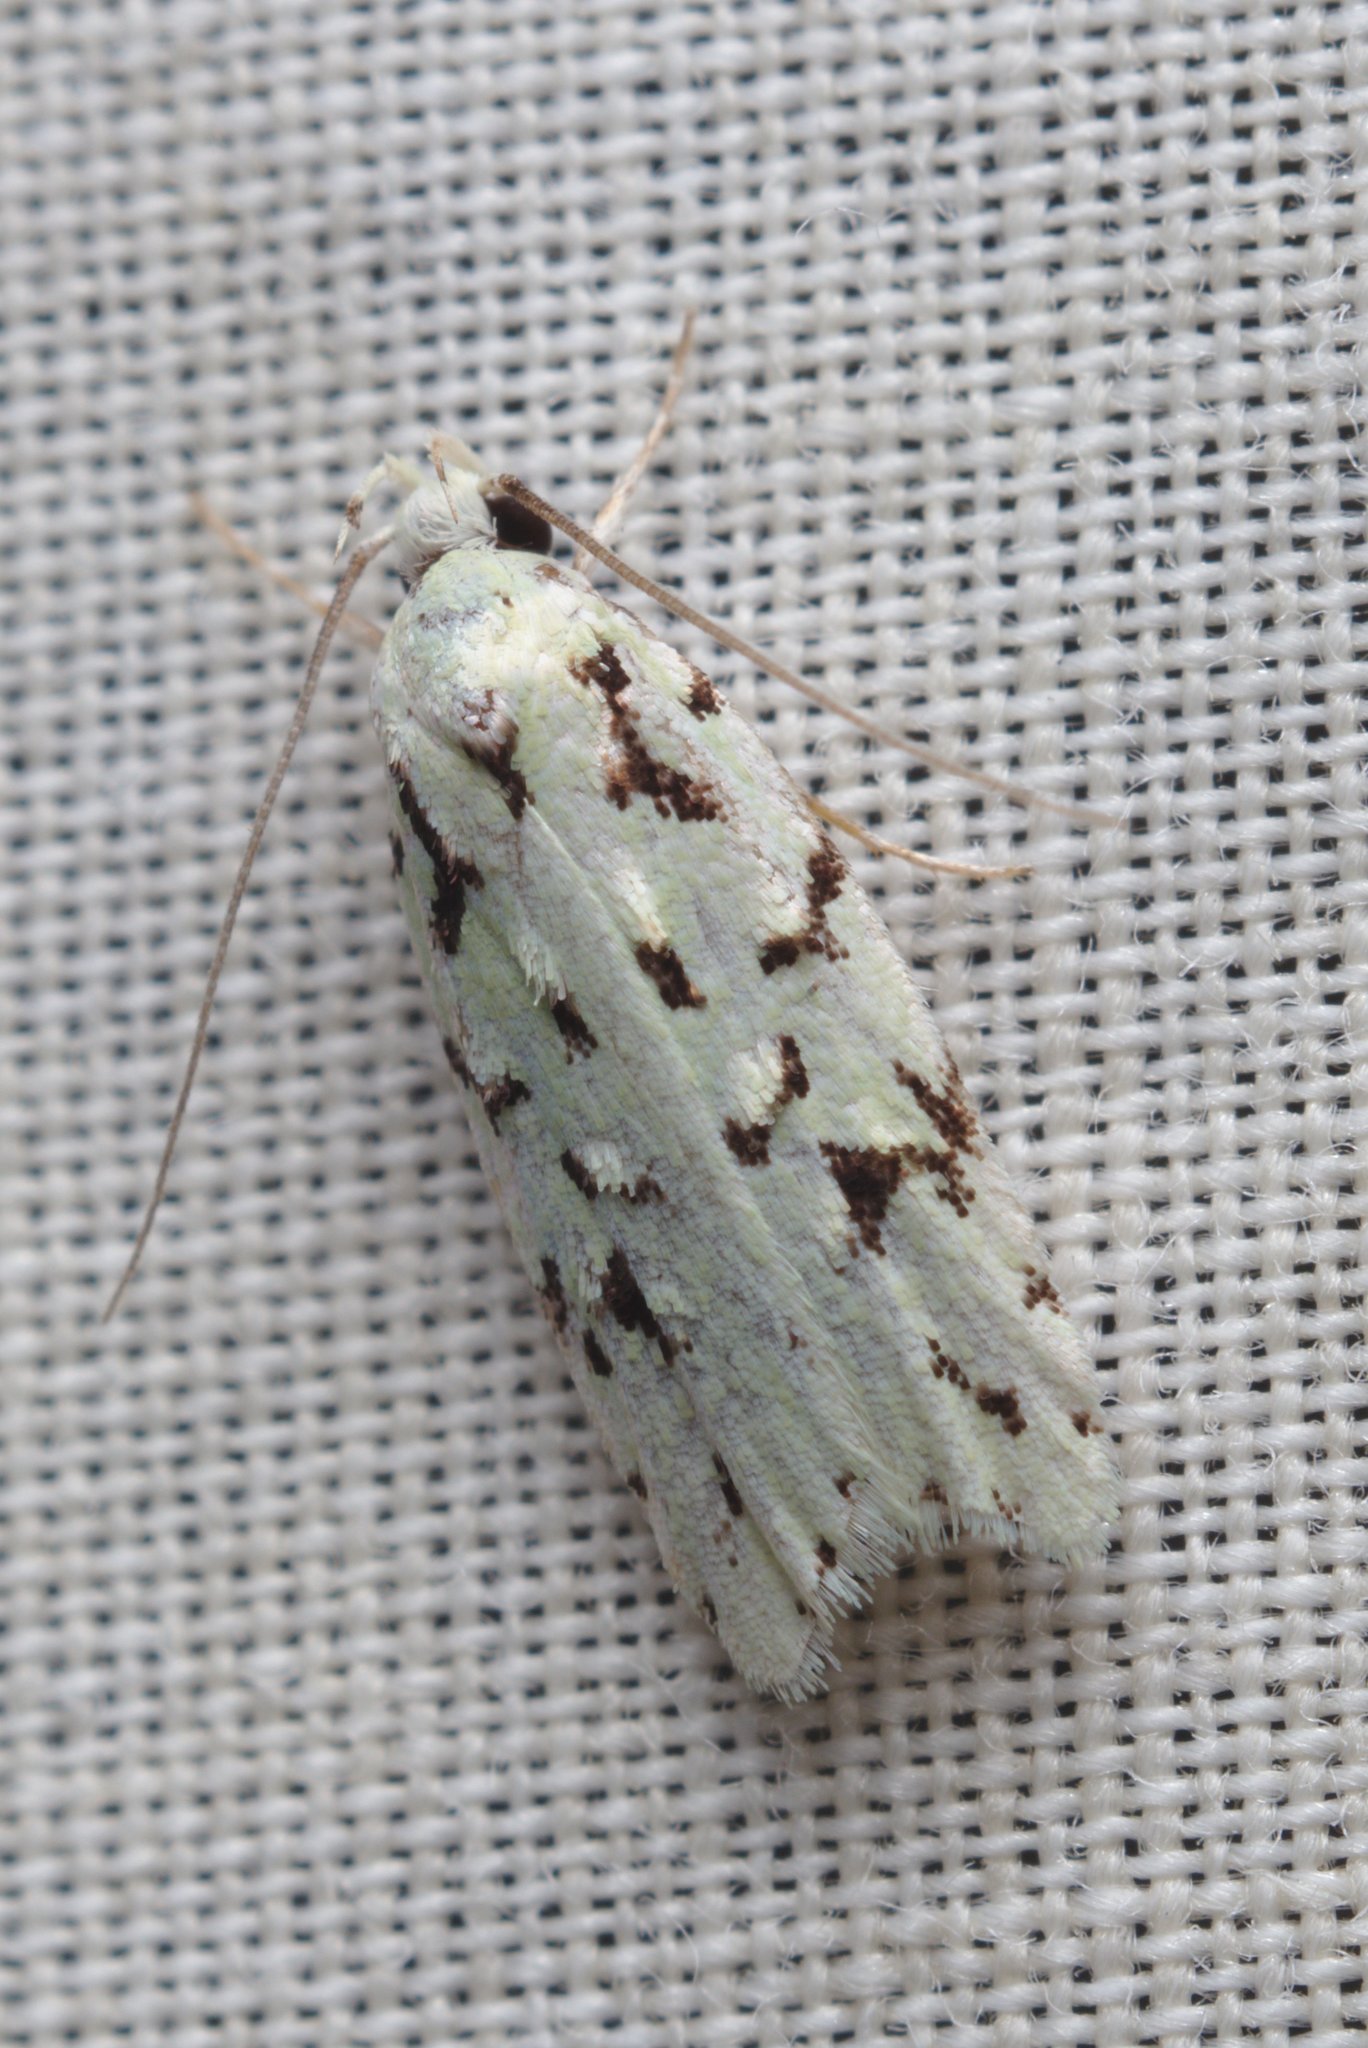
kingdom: Animalia
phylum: Arthropoda
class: Insecta
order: Lepidoptera
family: Oecophoridae
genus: Izatha
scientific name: Izatha peroneanella
